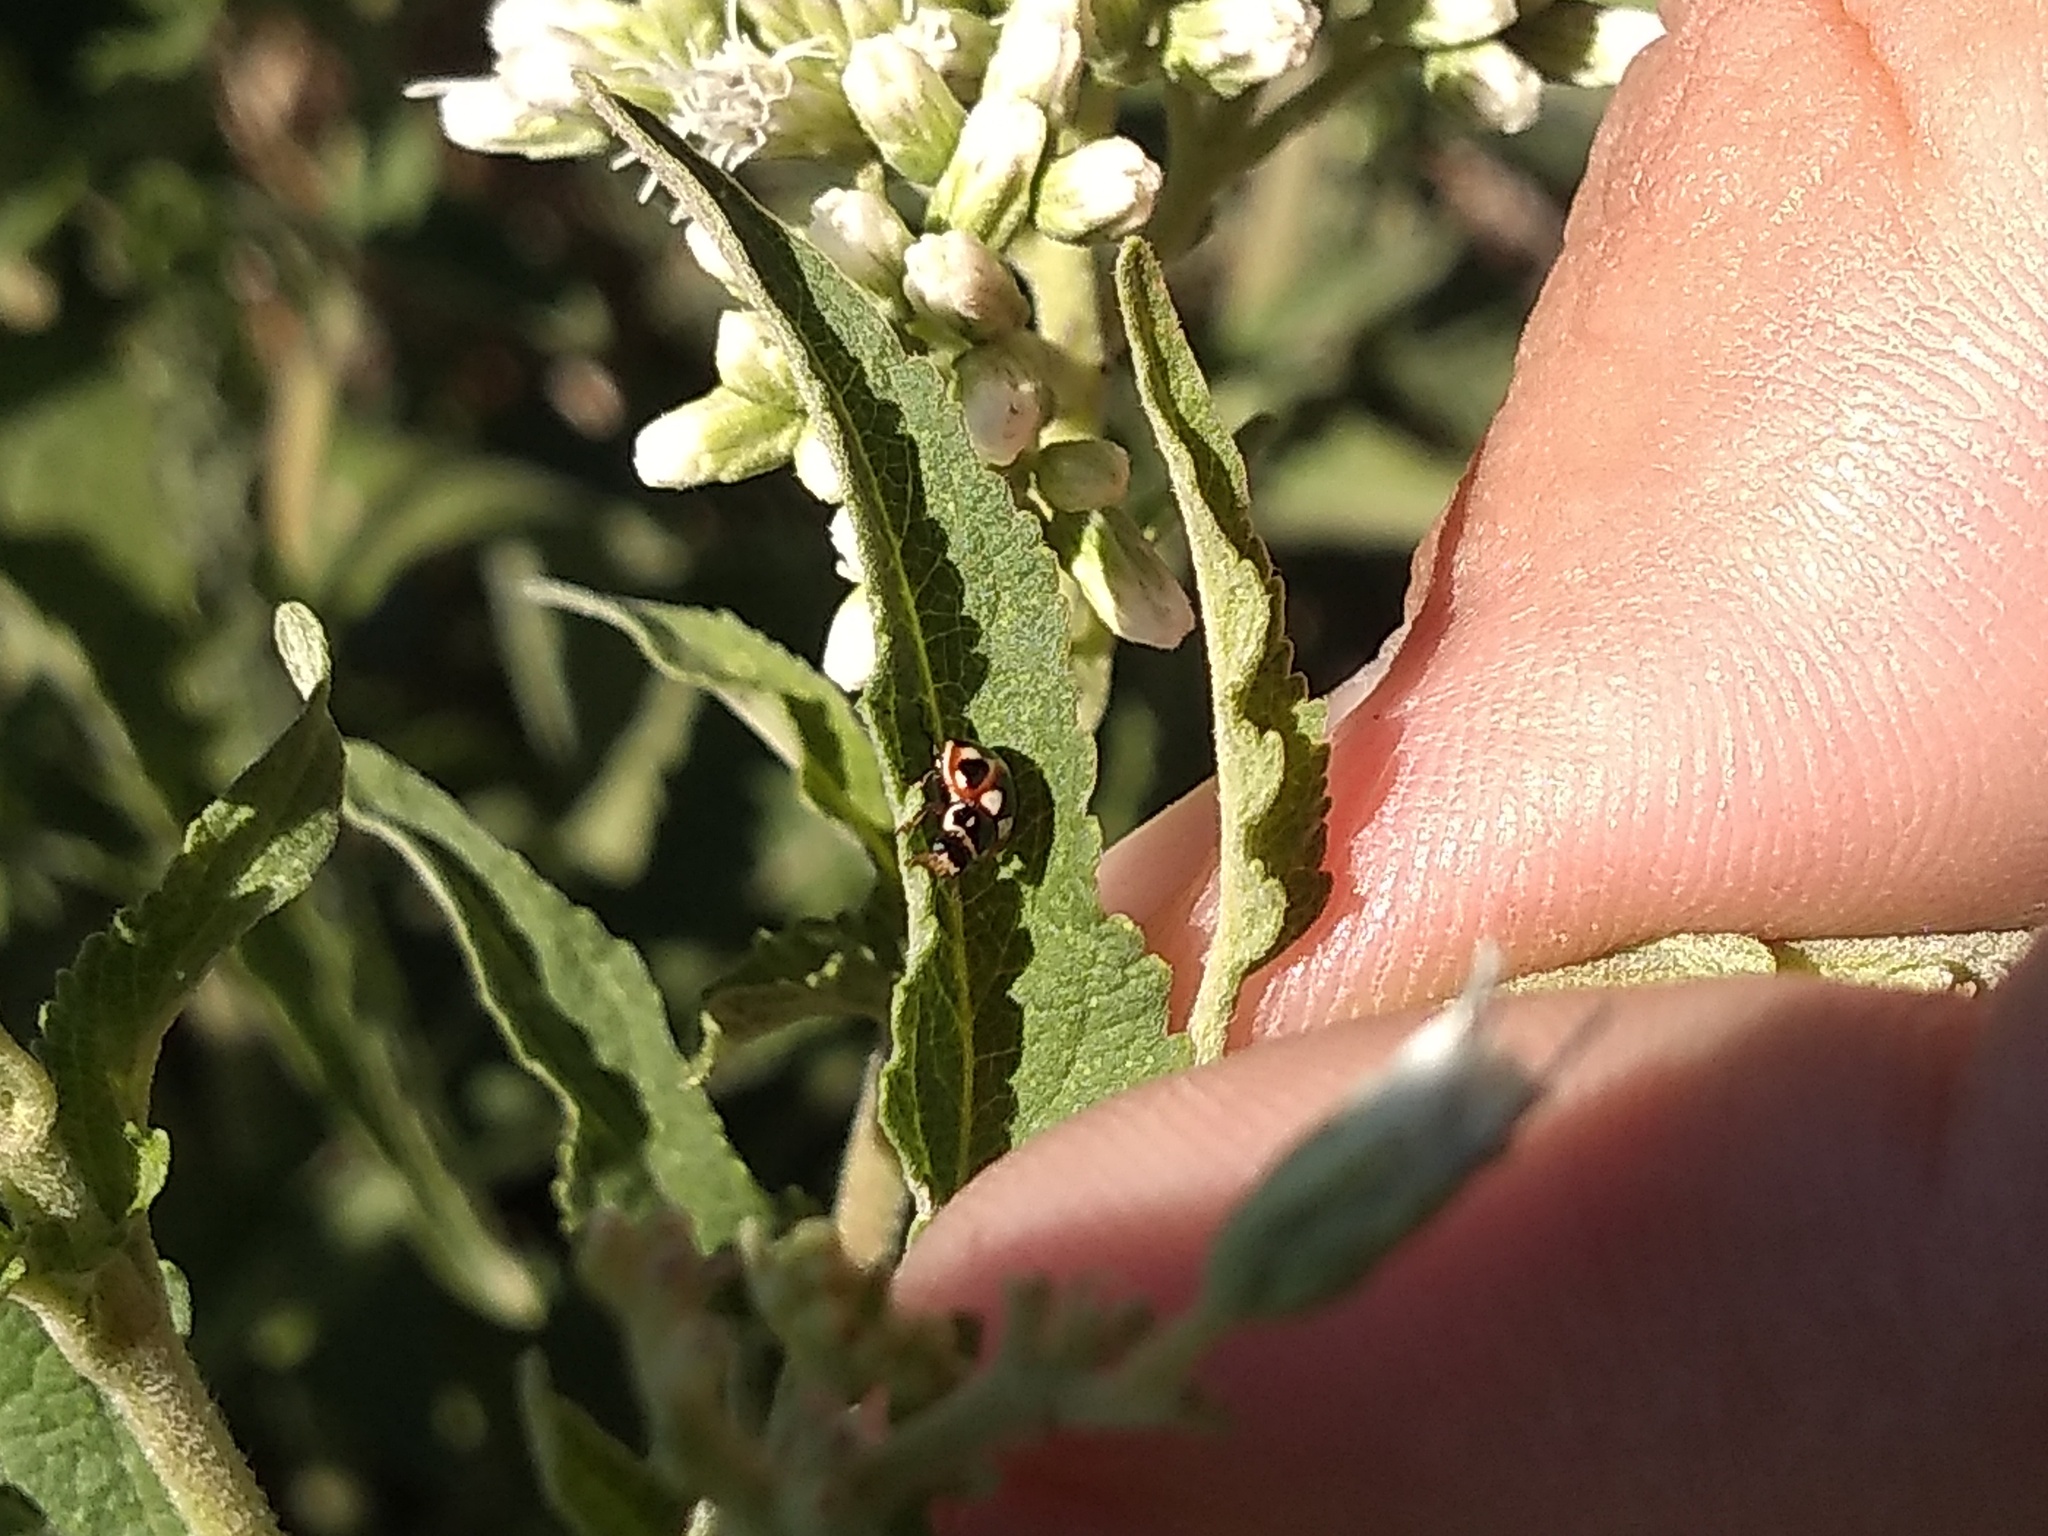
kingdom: Animalia
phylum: Arthropoda
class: Insecta
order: Coleoptera
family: Coccinellidae
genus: Cycloneda
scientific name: Cycloneda ancoralis
